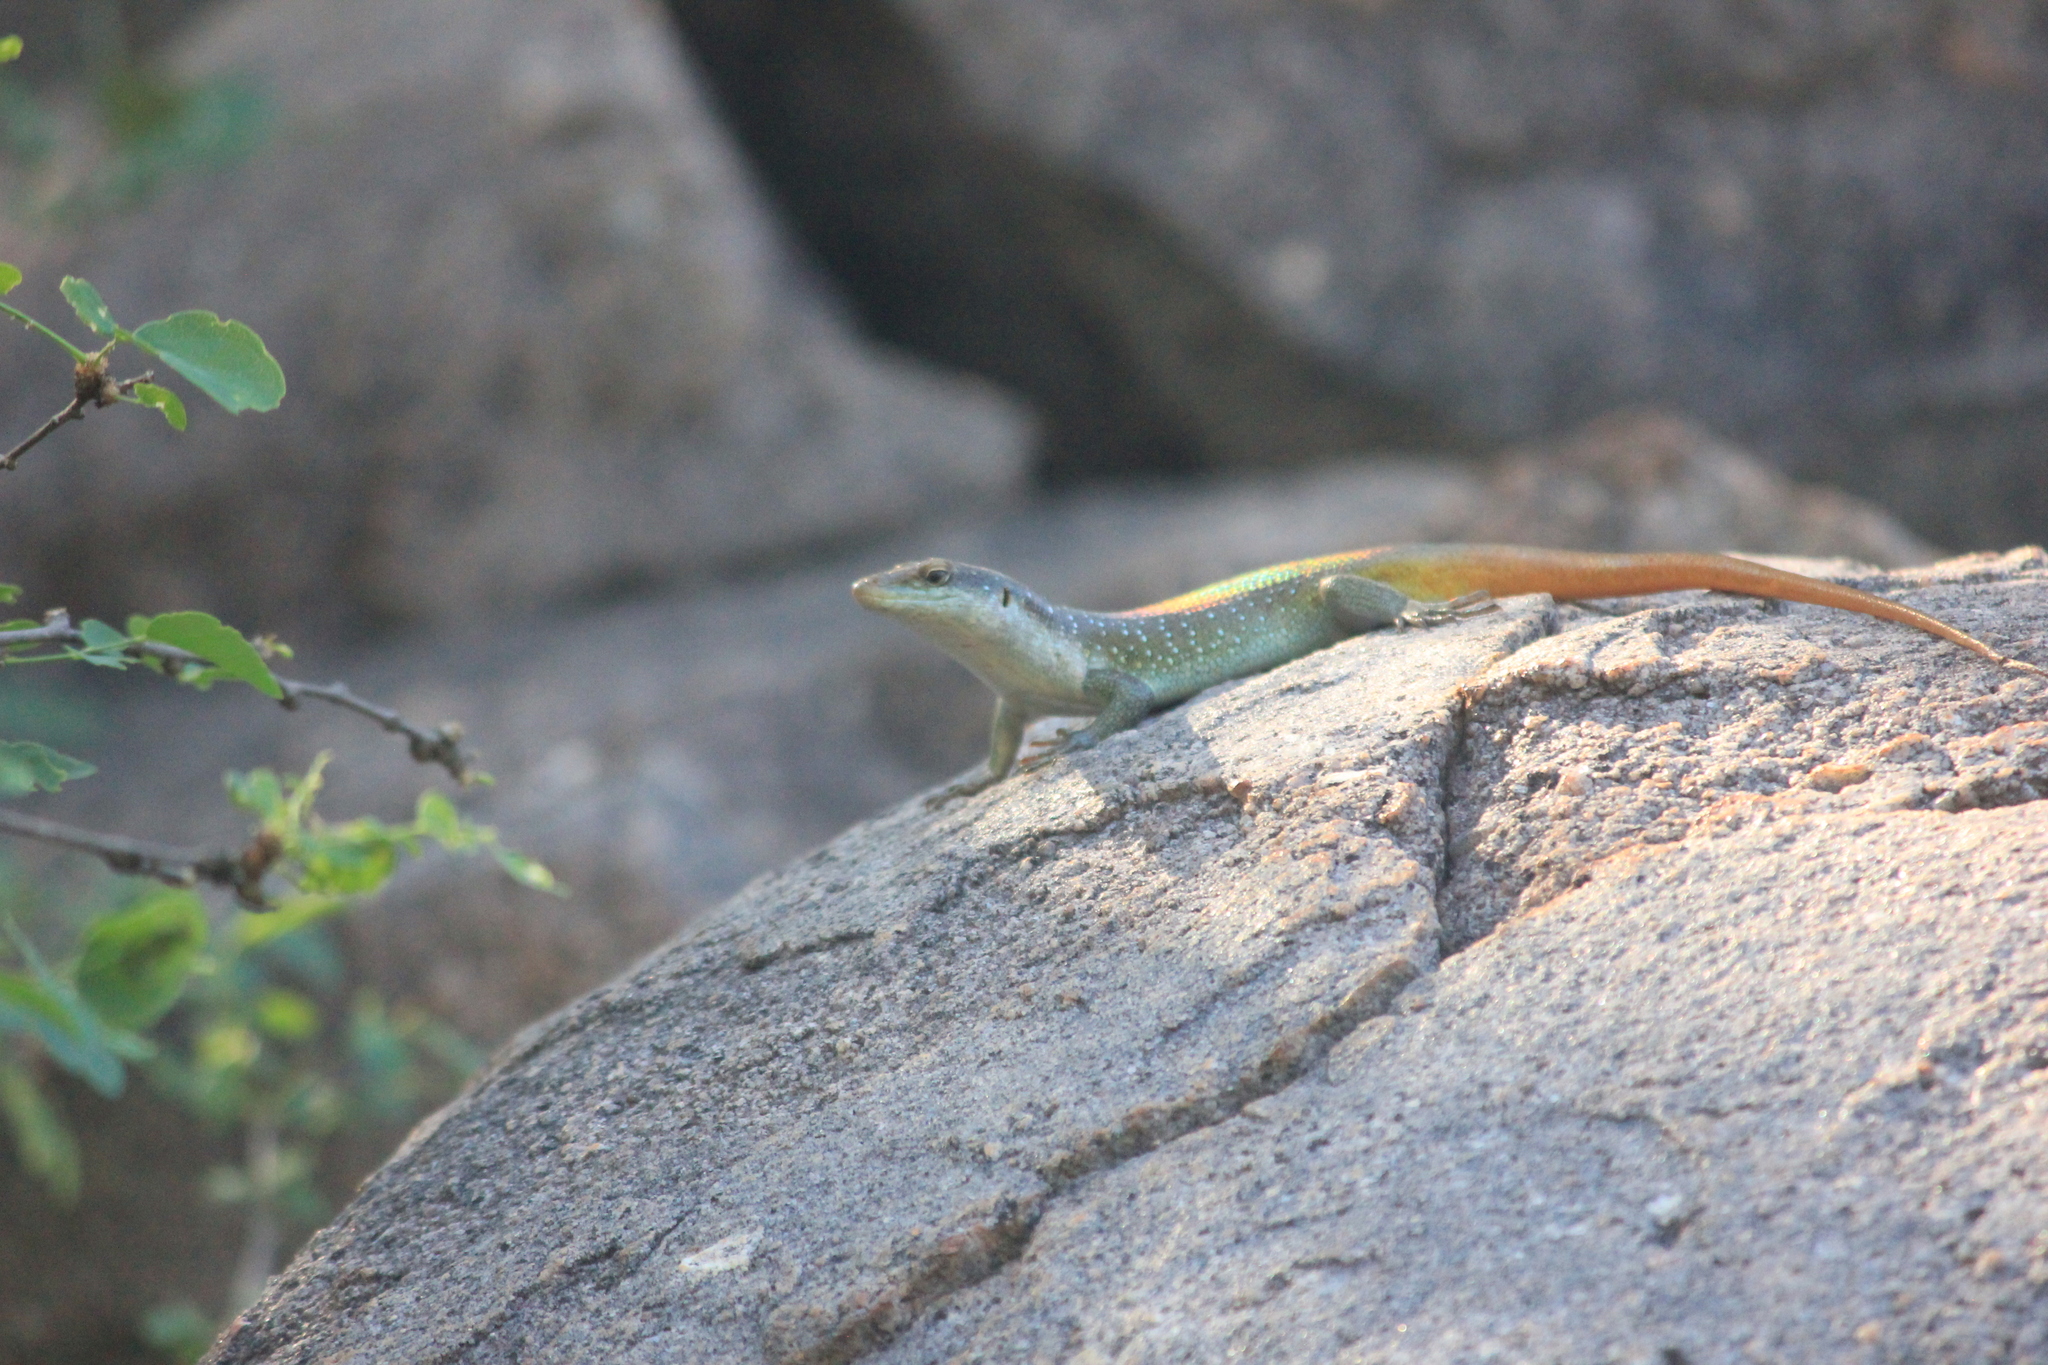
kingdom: Animalia
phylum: Chordata
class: Squamata
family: Scincidae
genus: Trachylepis
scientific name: Trachylepis margaritifera
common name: Rainbow skink
